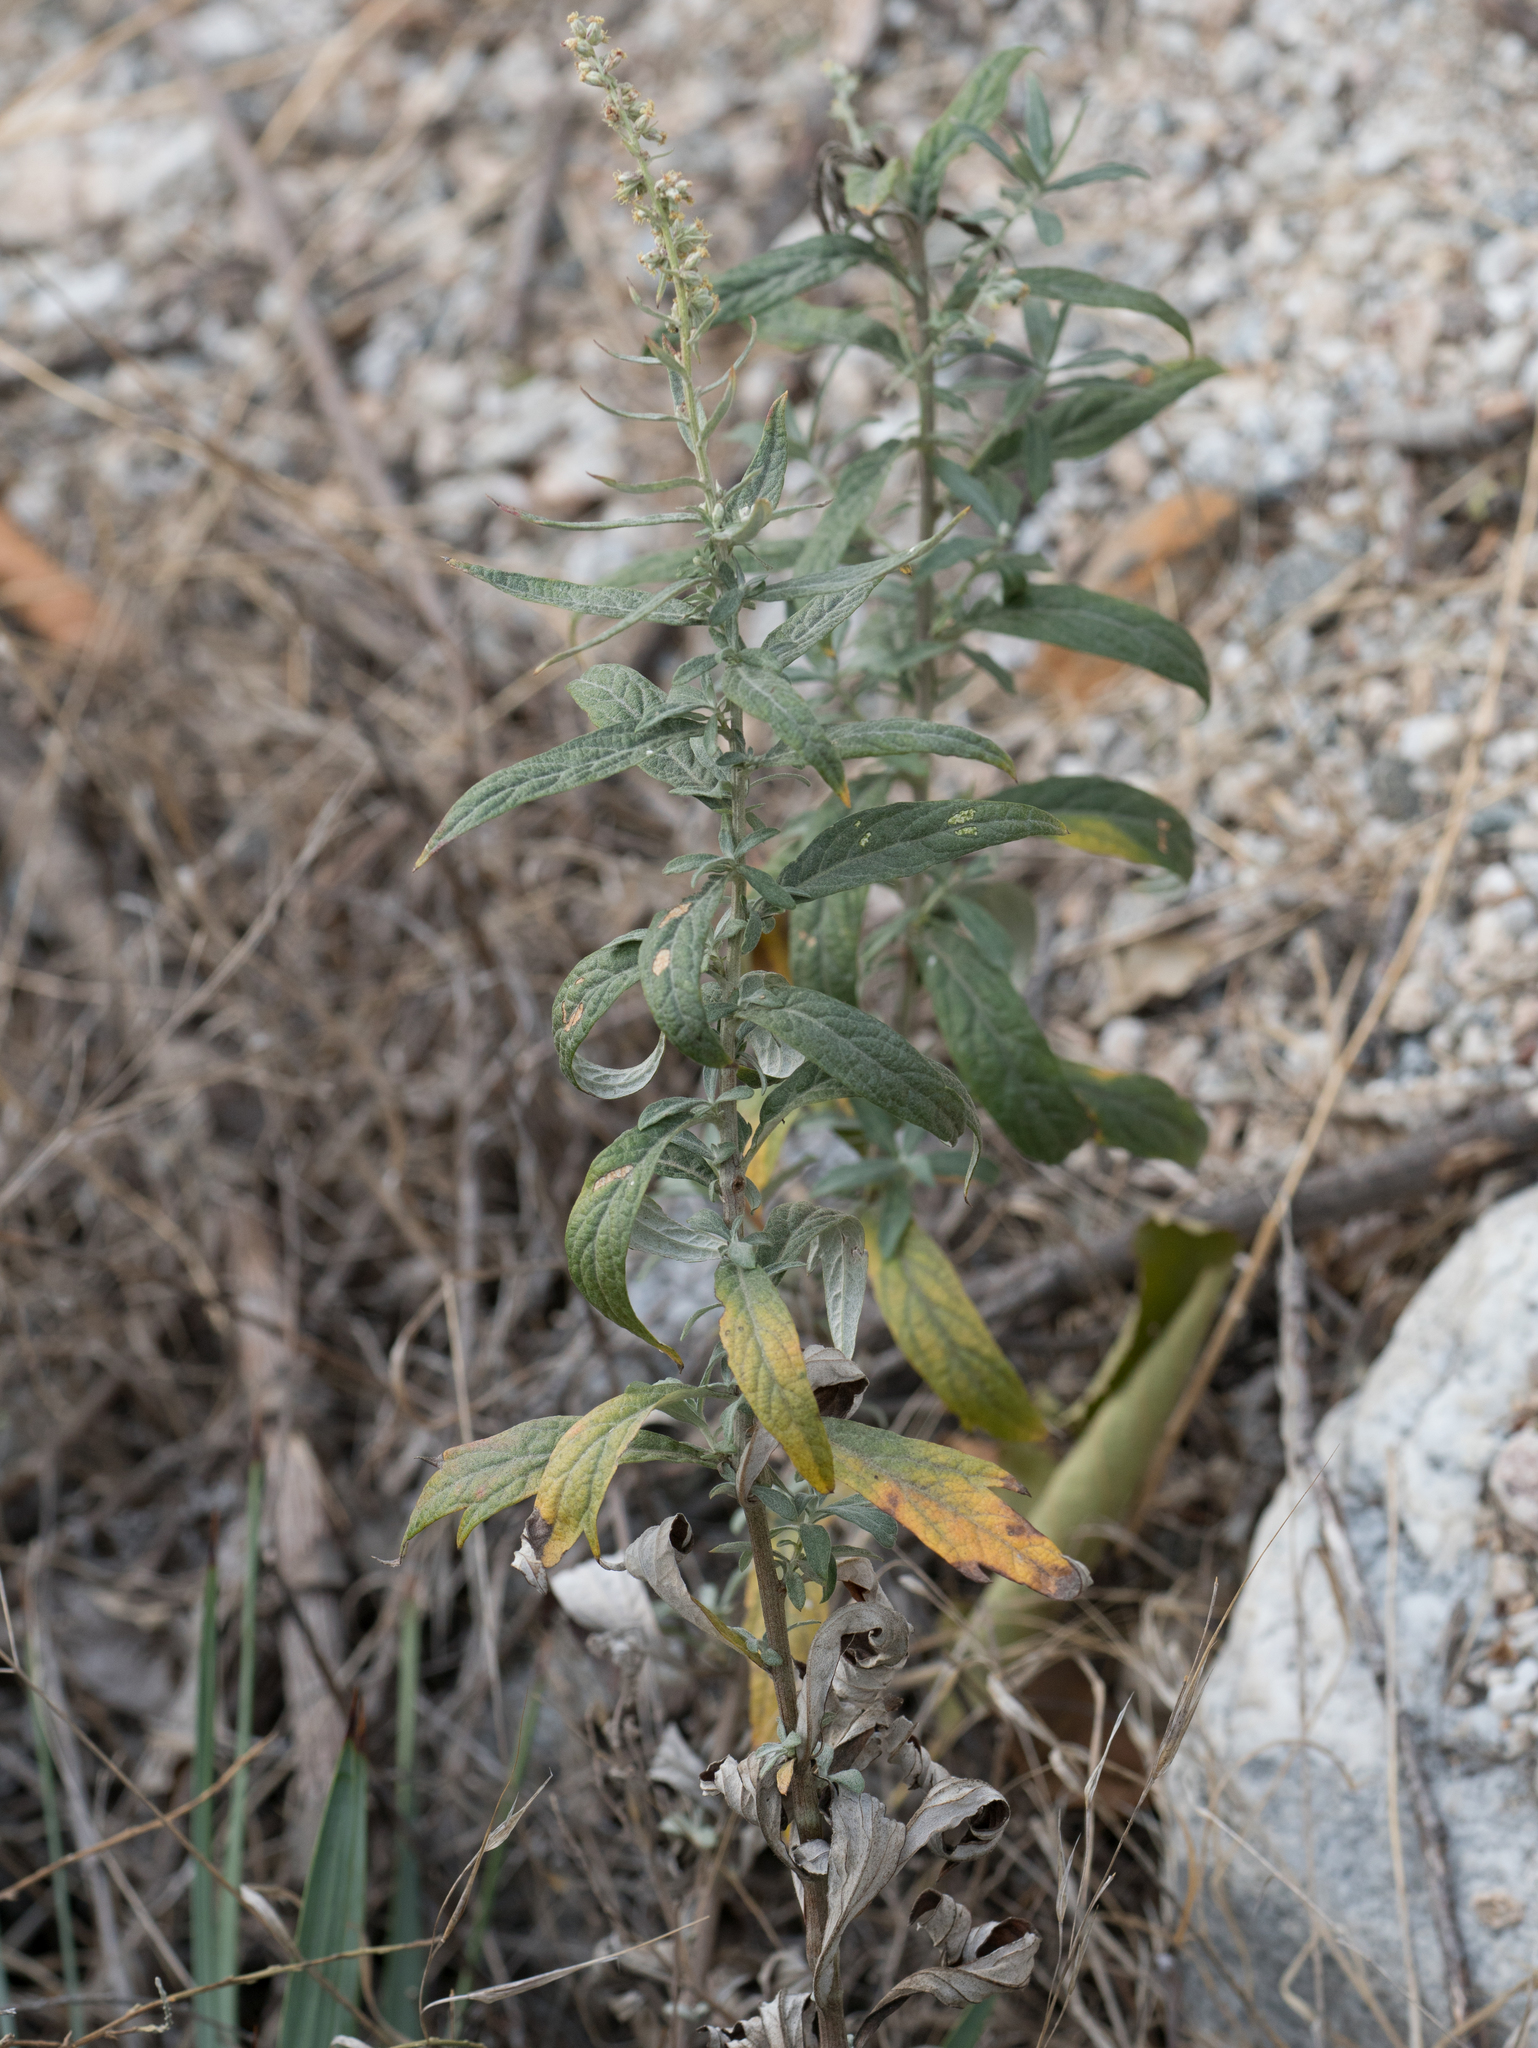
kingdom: Plantae
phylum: Tracheophyta
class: Magnoliopsida
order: Asterales
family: Asteraceae
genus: Artemisia
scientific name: Artemisia douglasiana
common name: Northwest mugwort
